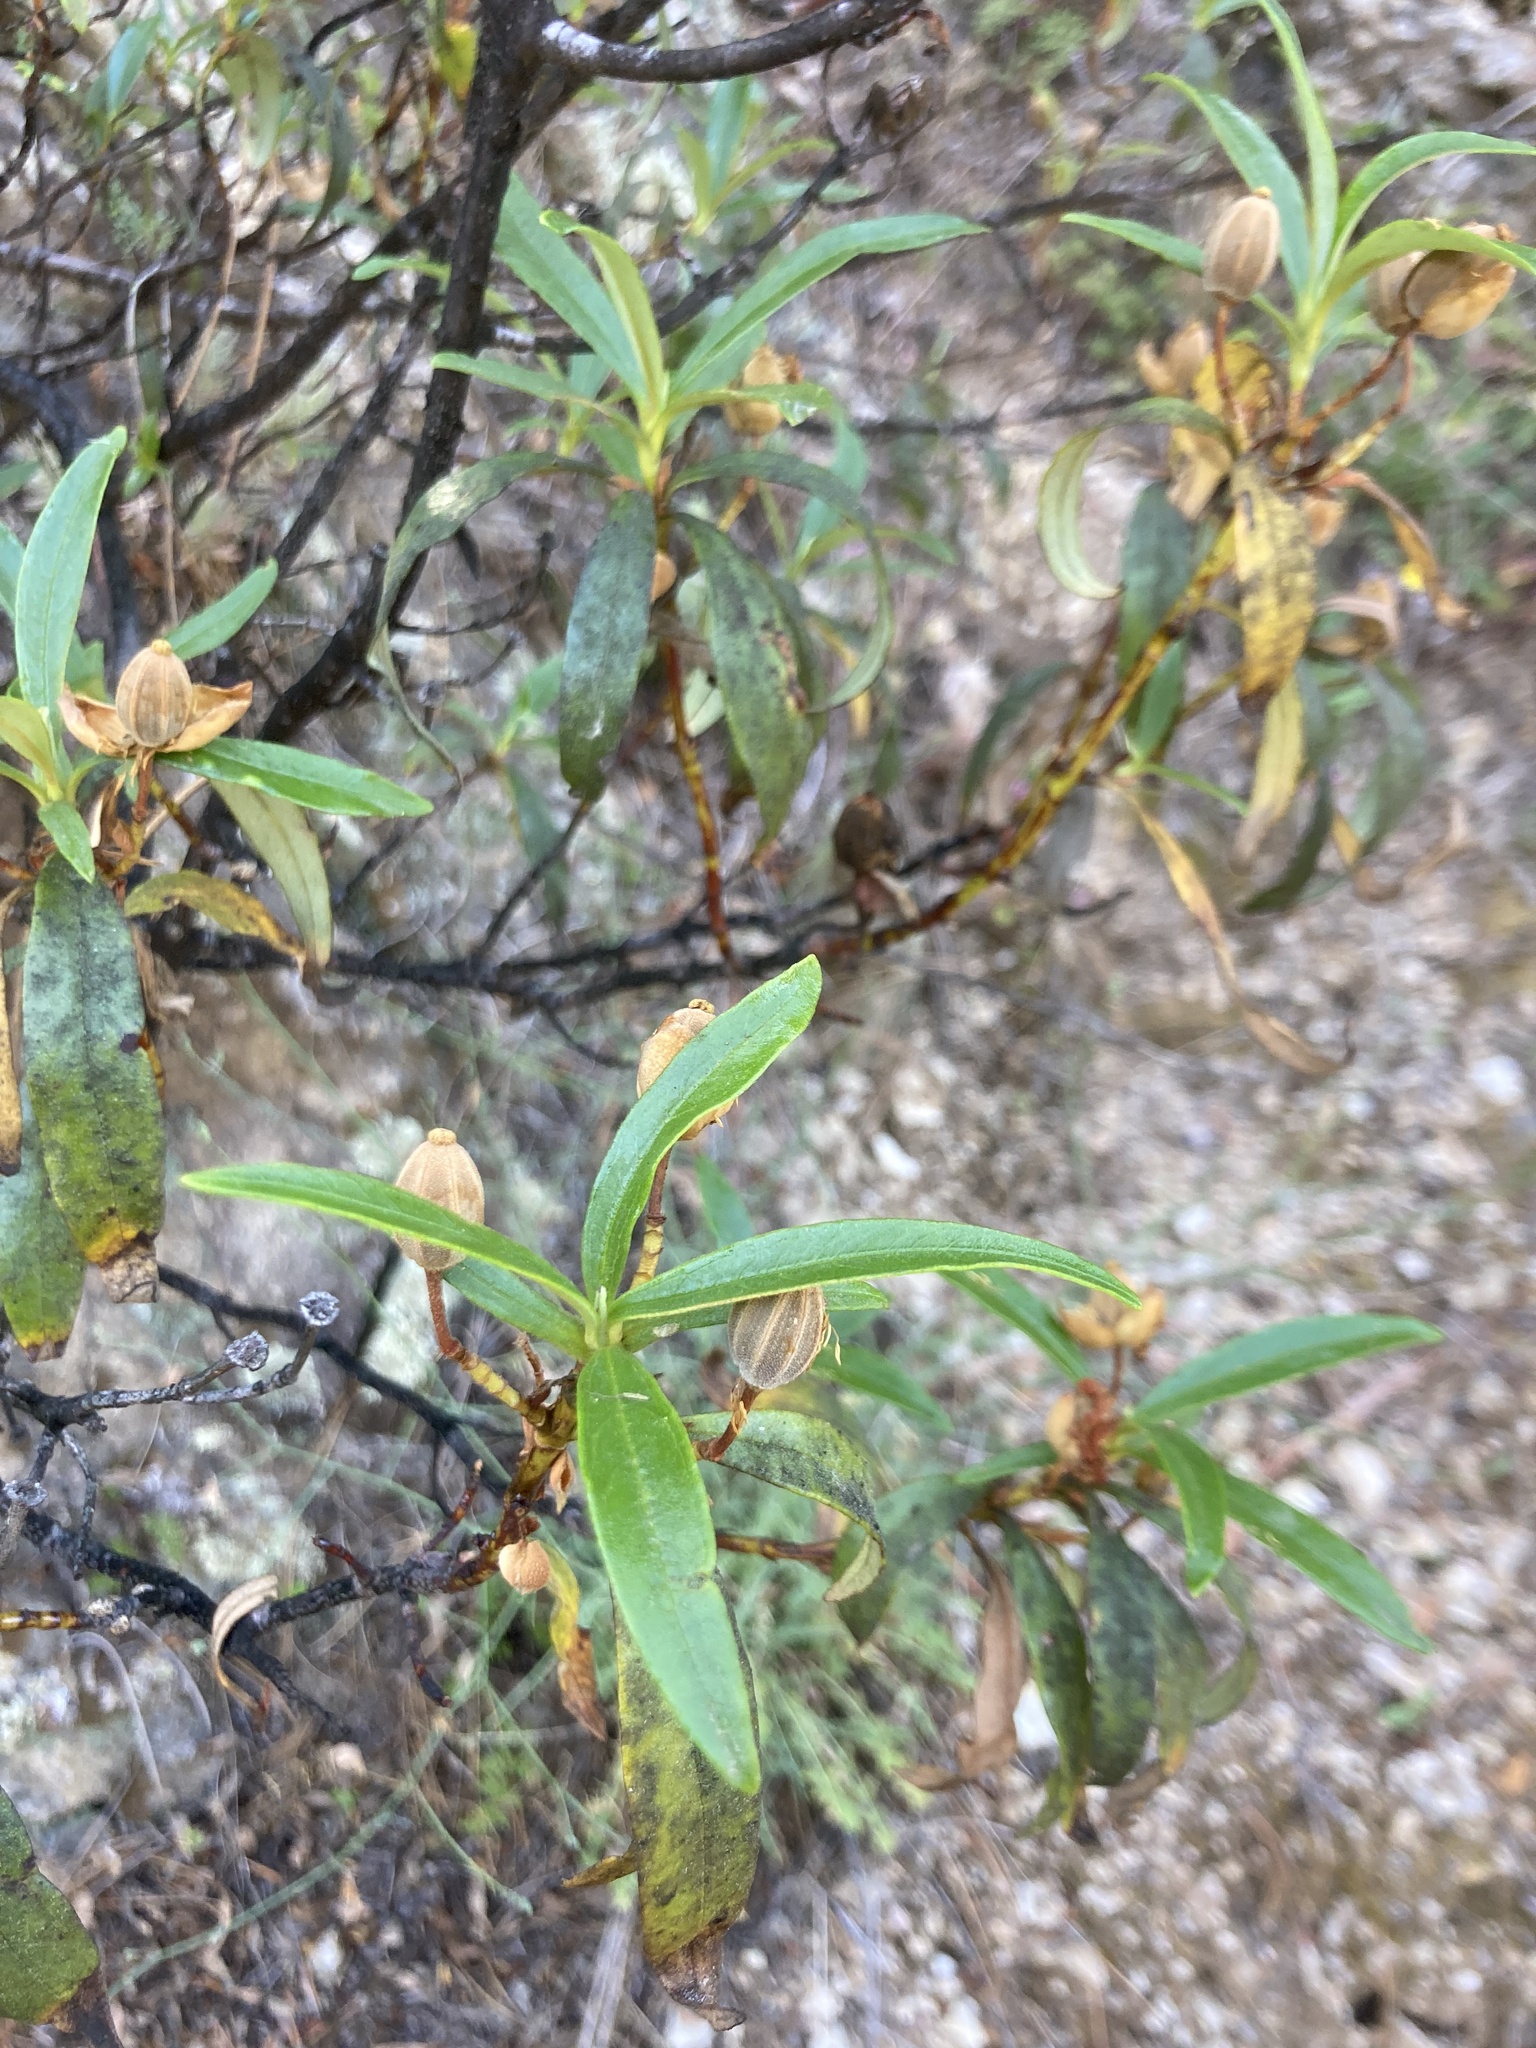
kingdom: Plantae
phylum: Tracheophyta
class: Magnoliopsida
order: Malvales
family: Cistaceae
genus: Cistus
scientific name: Cistus ladanifer
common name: Common gum cistus
